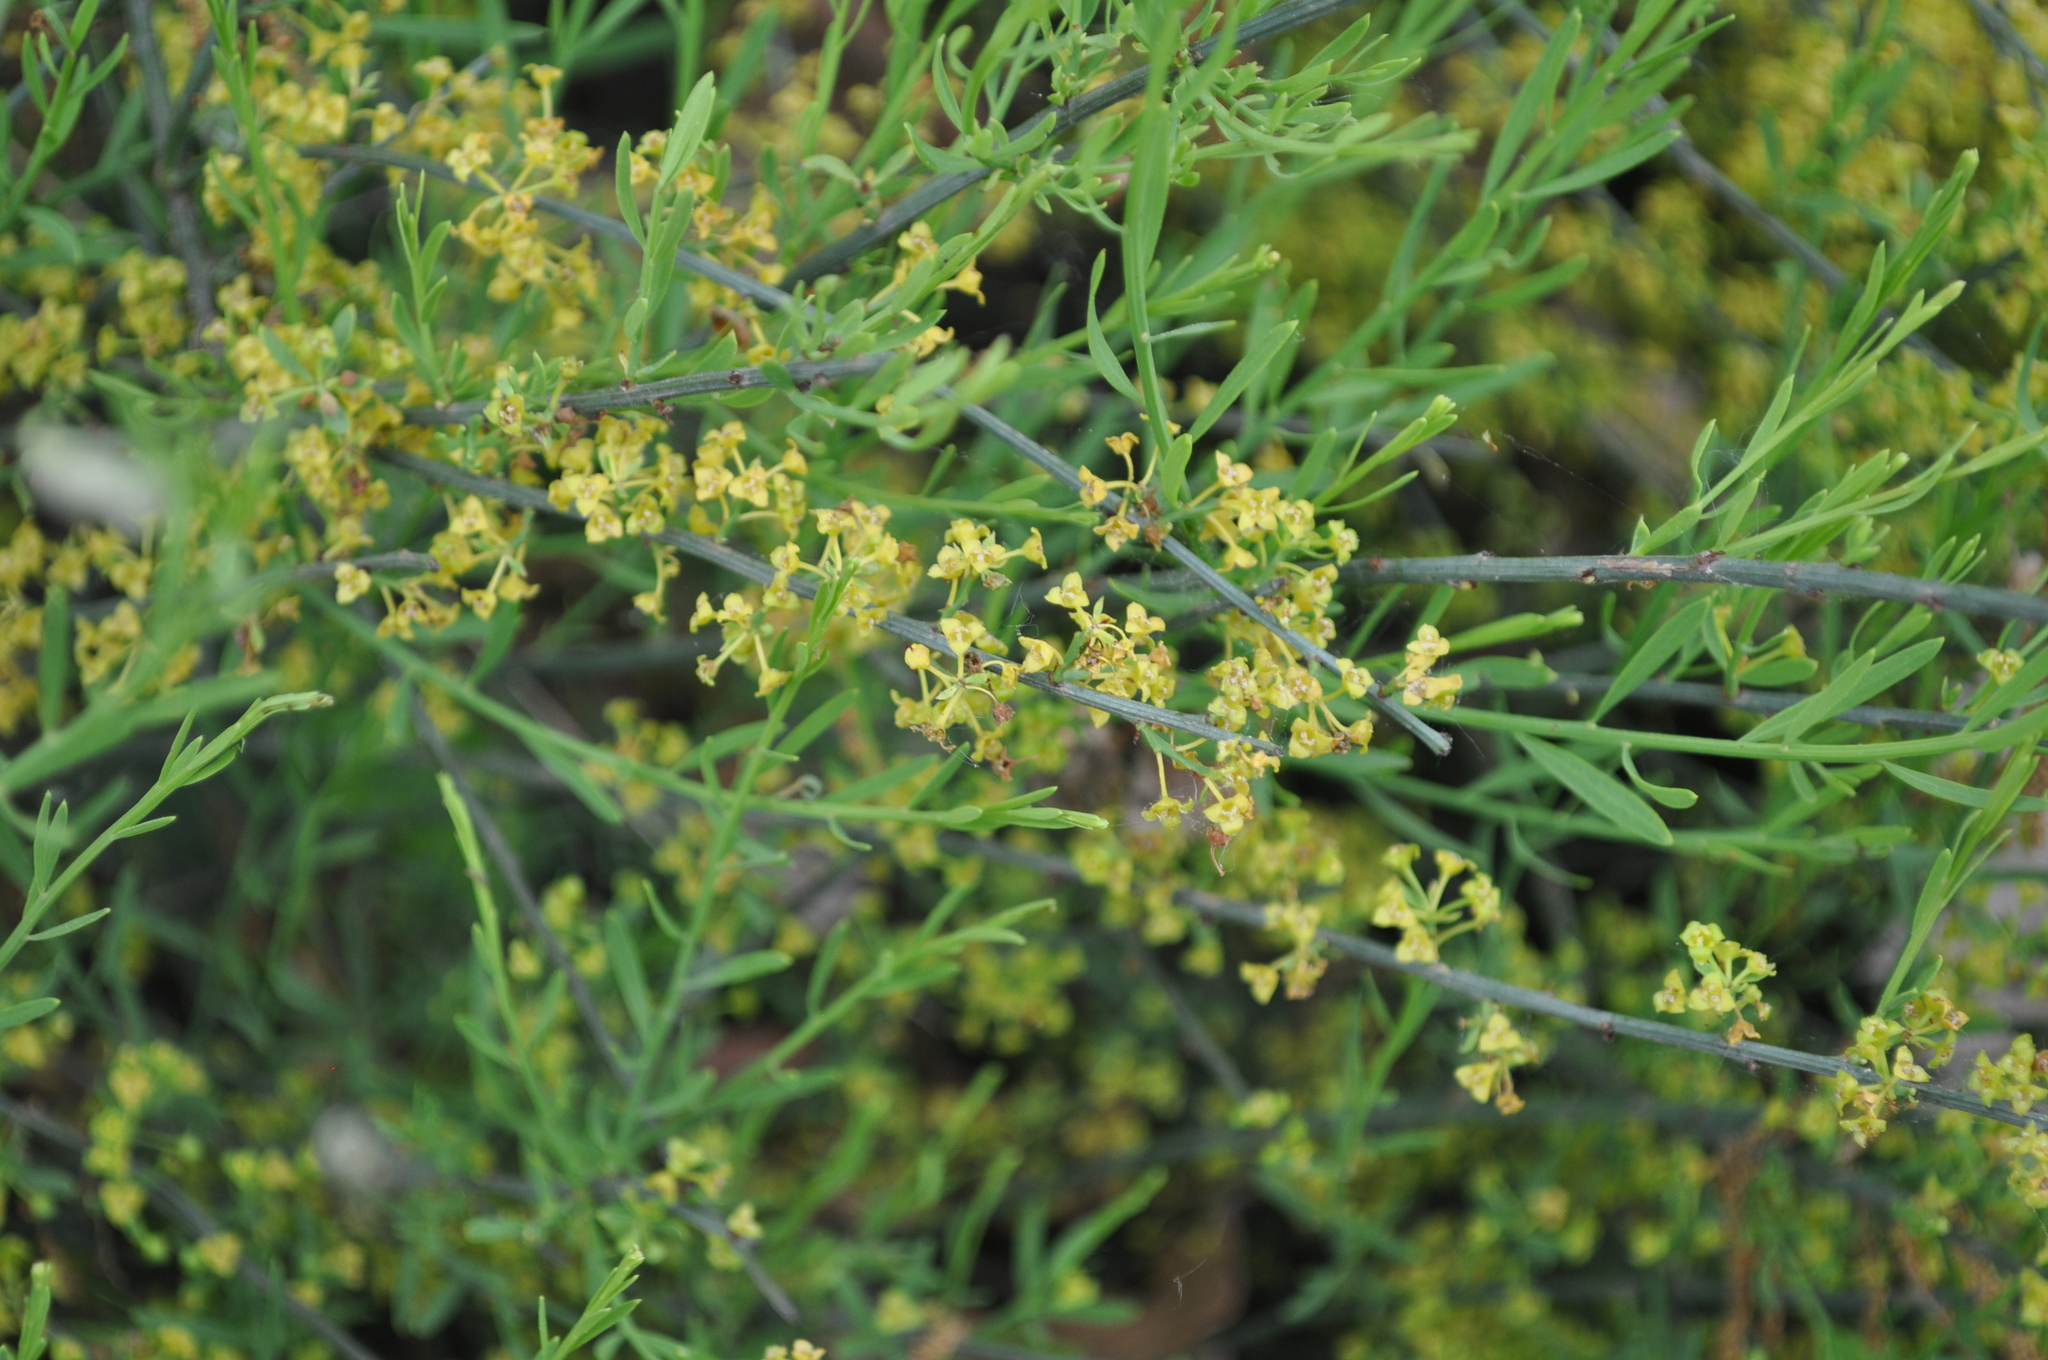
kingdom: Plantae
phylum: Tracheophyta
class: Magnoliopsida
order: Santalales
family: Santalaceae
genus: Osyris
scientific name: Osyris alba
